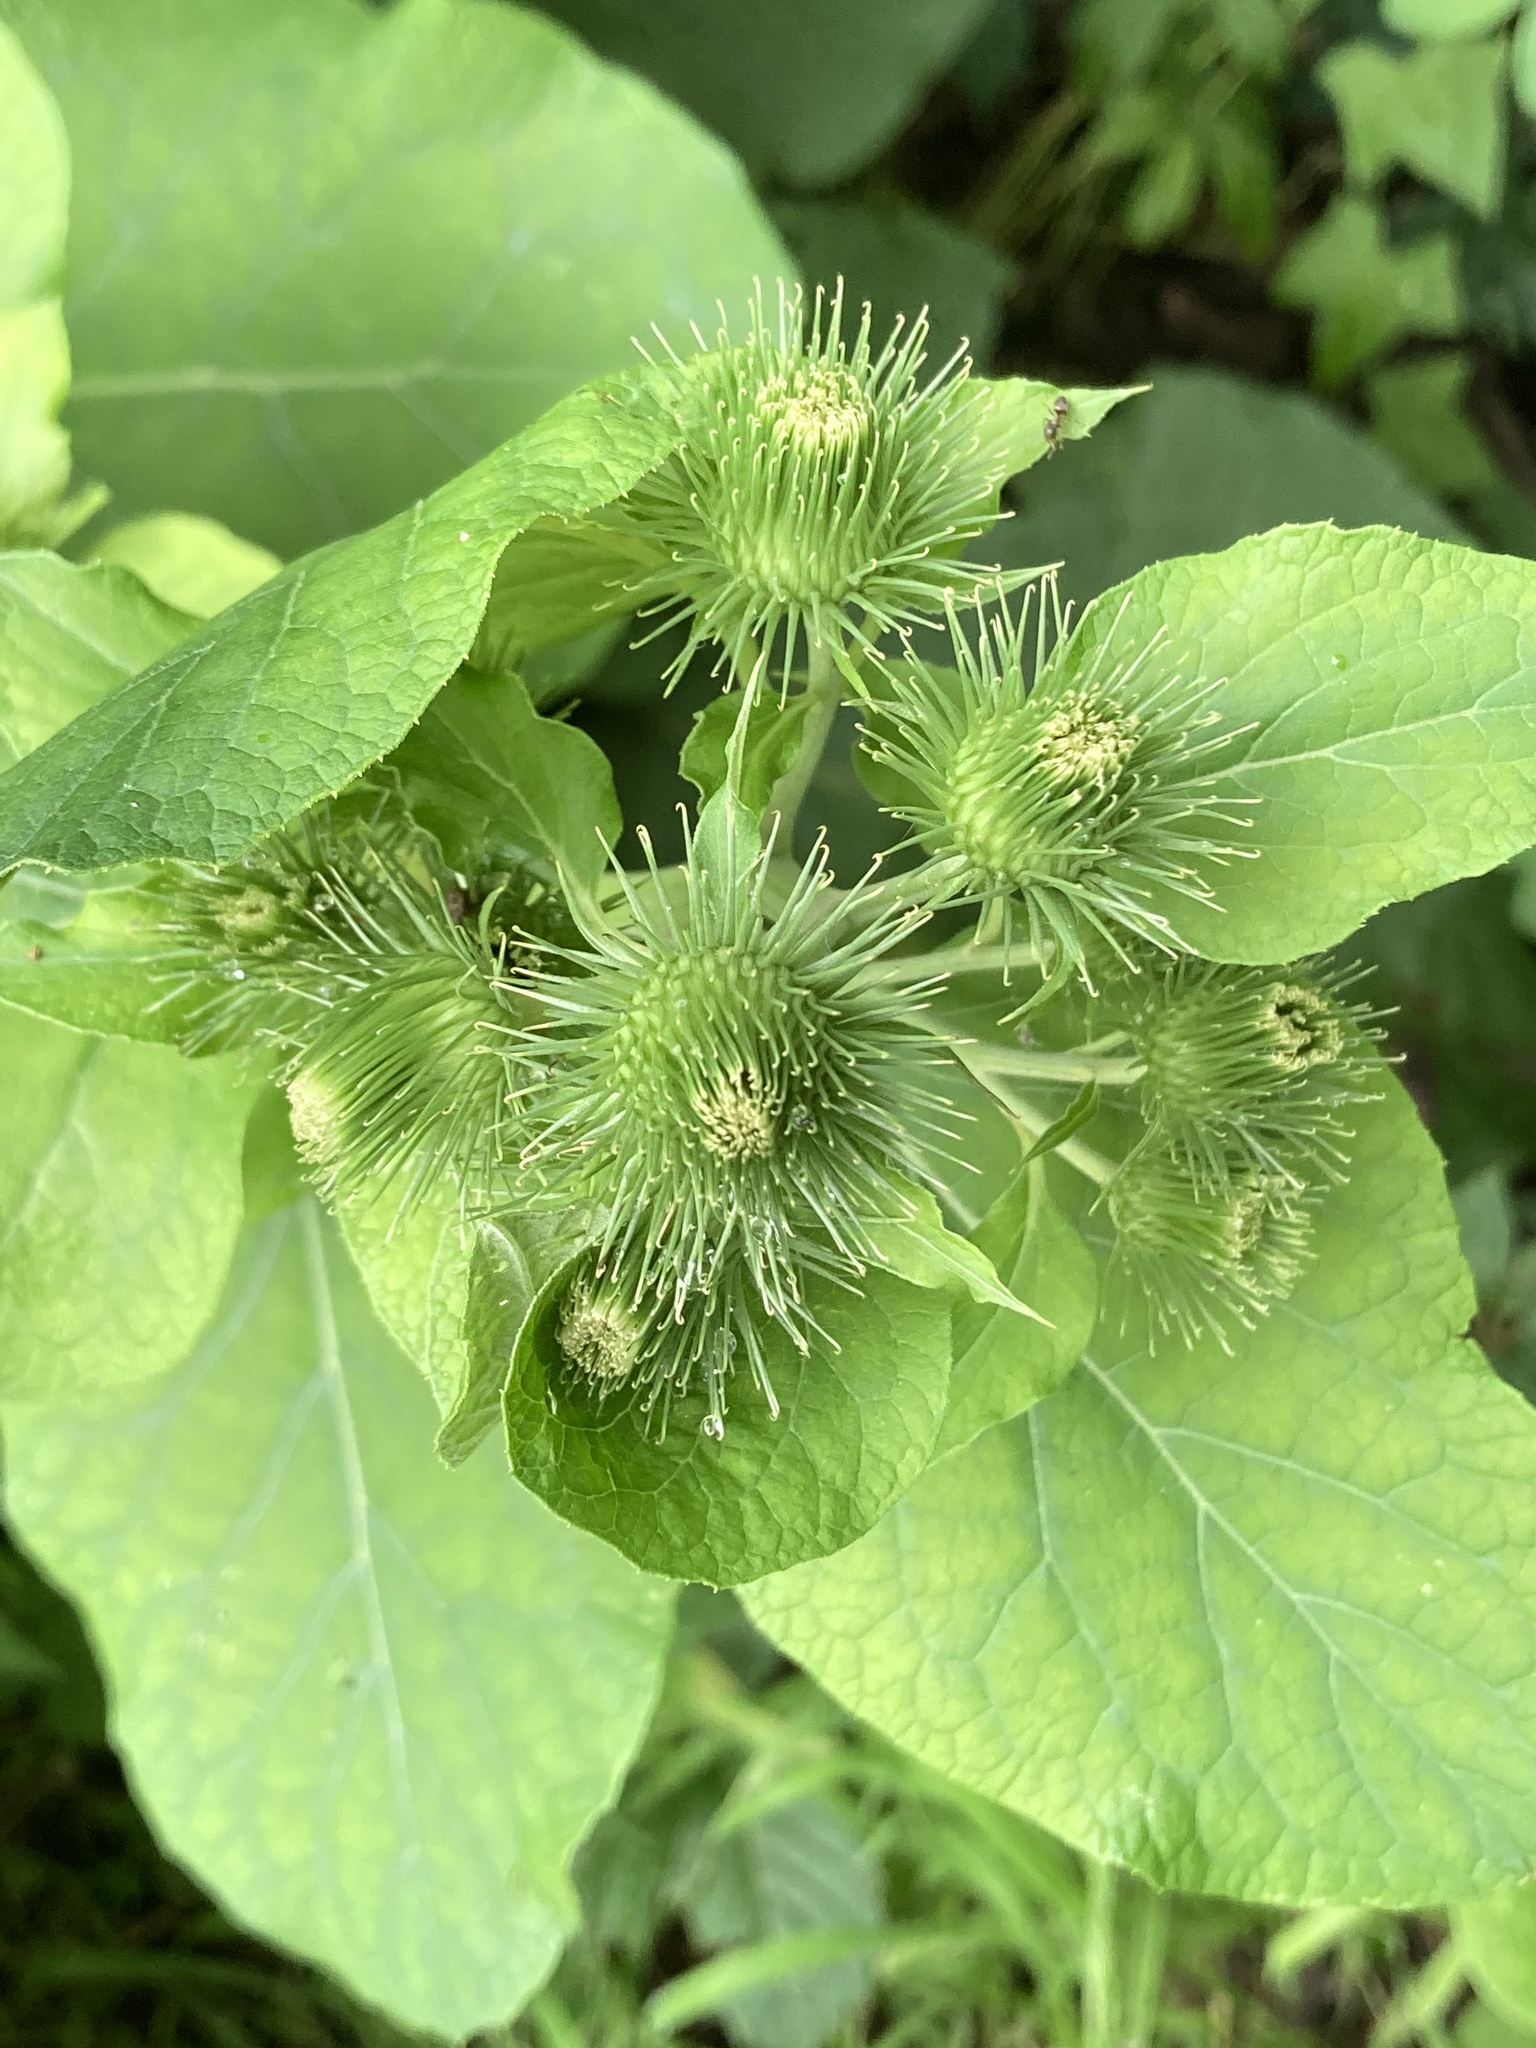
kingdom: Plantae
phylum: Tracheophyta
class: Magnoliopsida
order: Asterales
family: Asteraceae
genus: Arctium
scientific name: Arctium lappa
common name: Greater burdock
